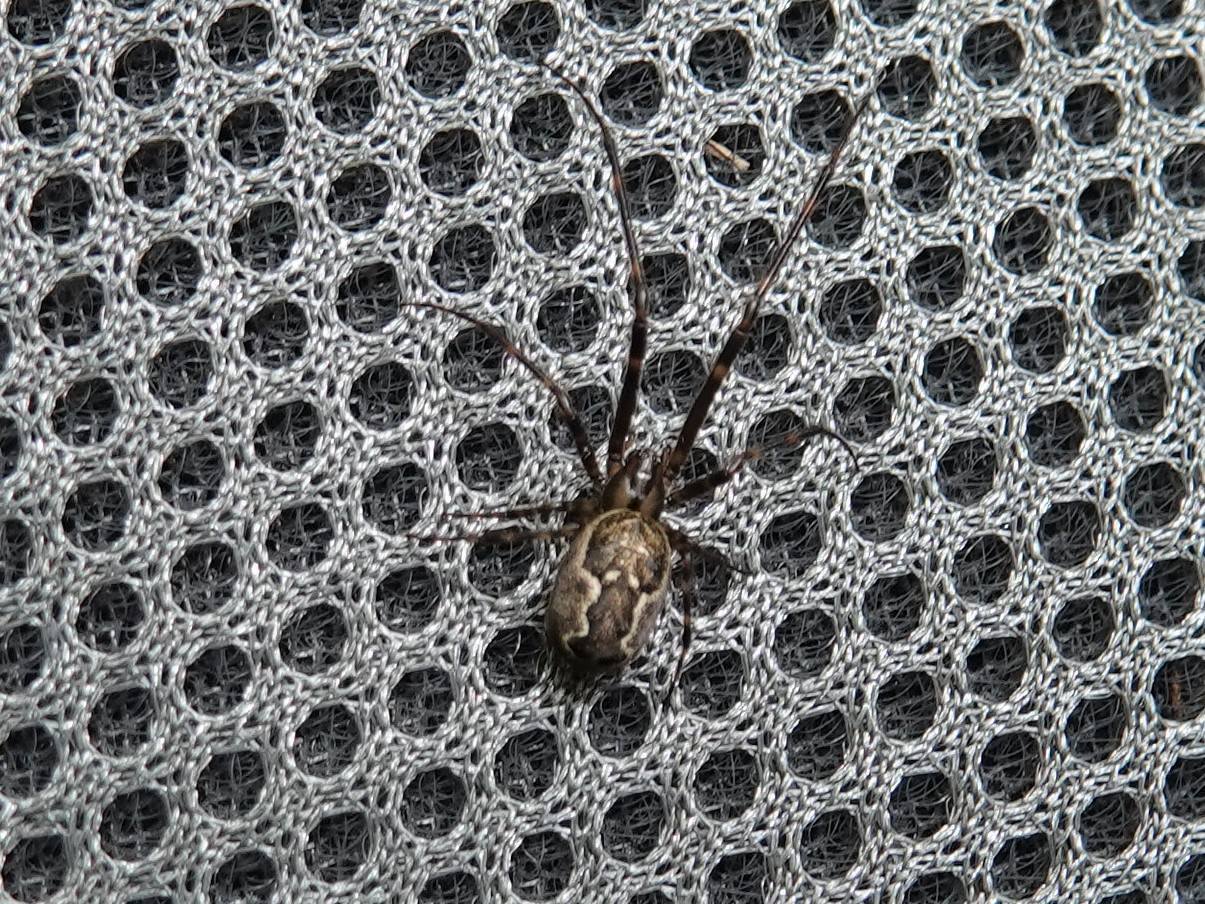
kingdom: Animalia
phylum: Arthropoda
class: Arachnida
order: Araneae
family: Tetragnathidae
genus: Nanometa
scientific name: Nanometa lagenifera
